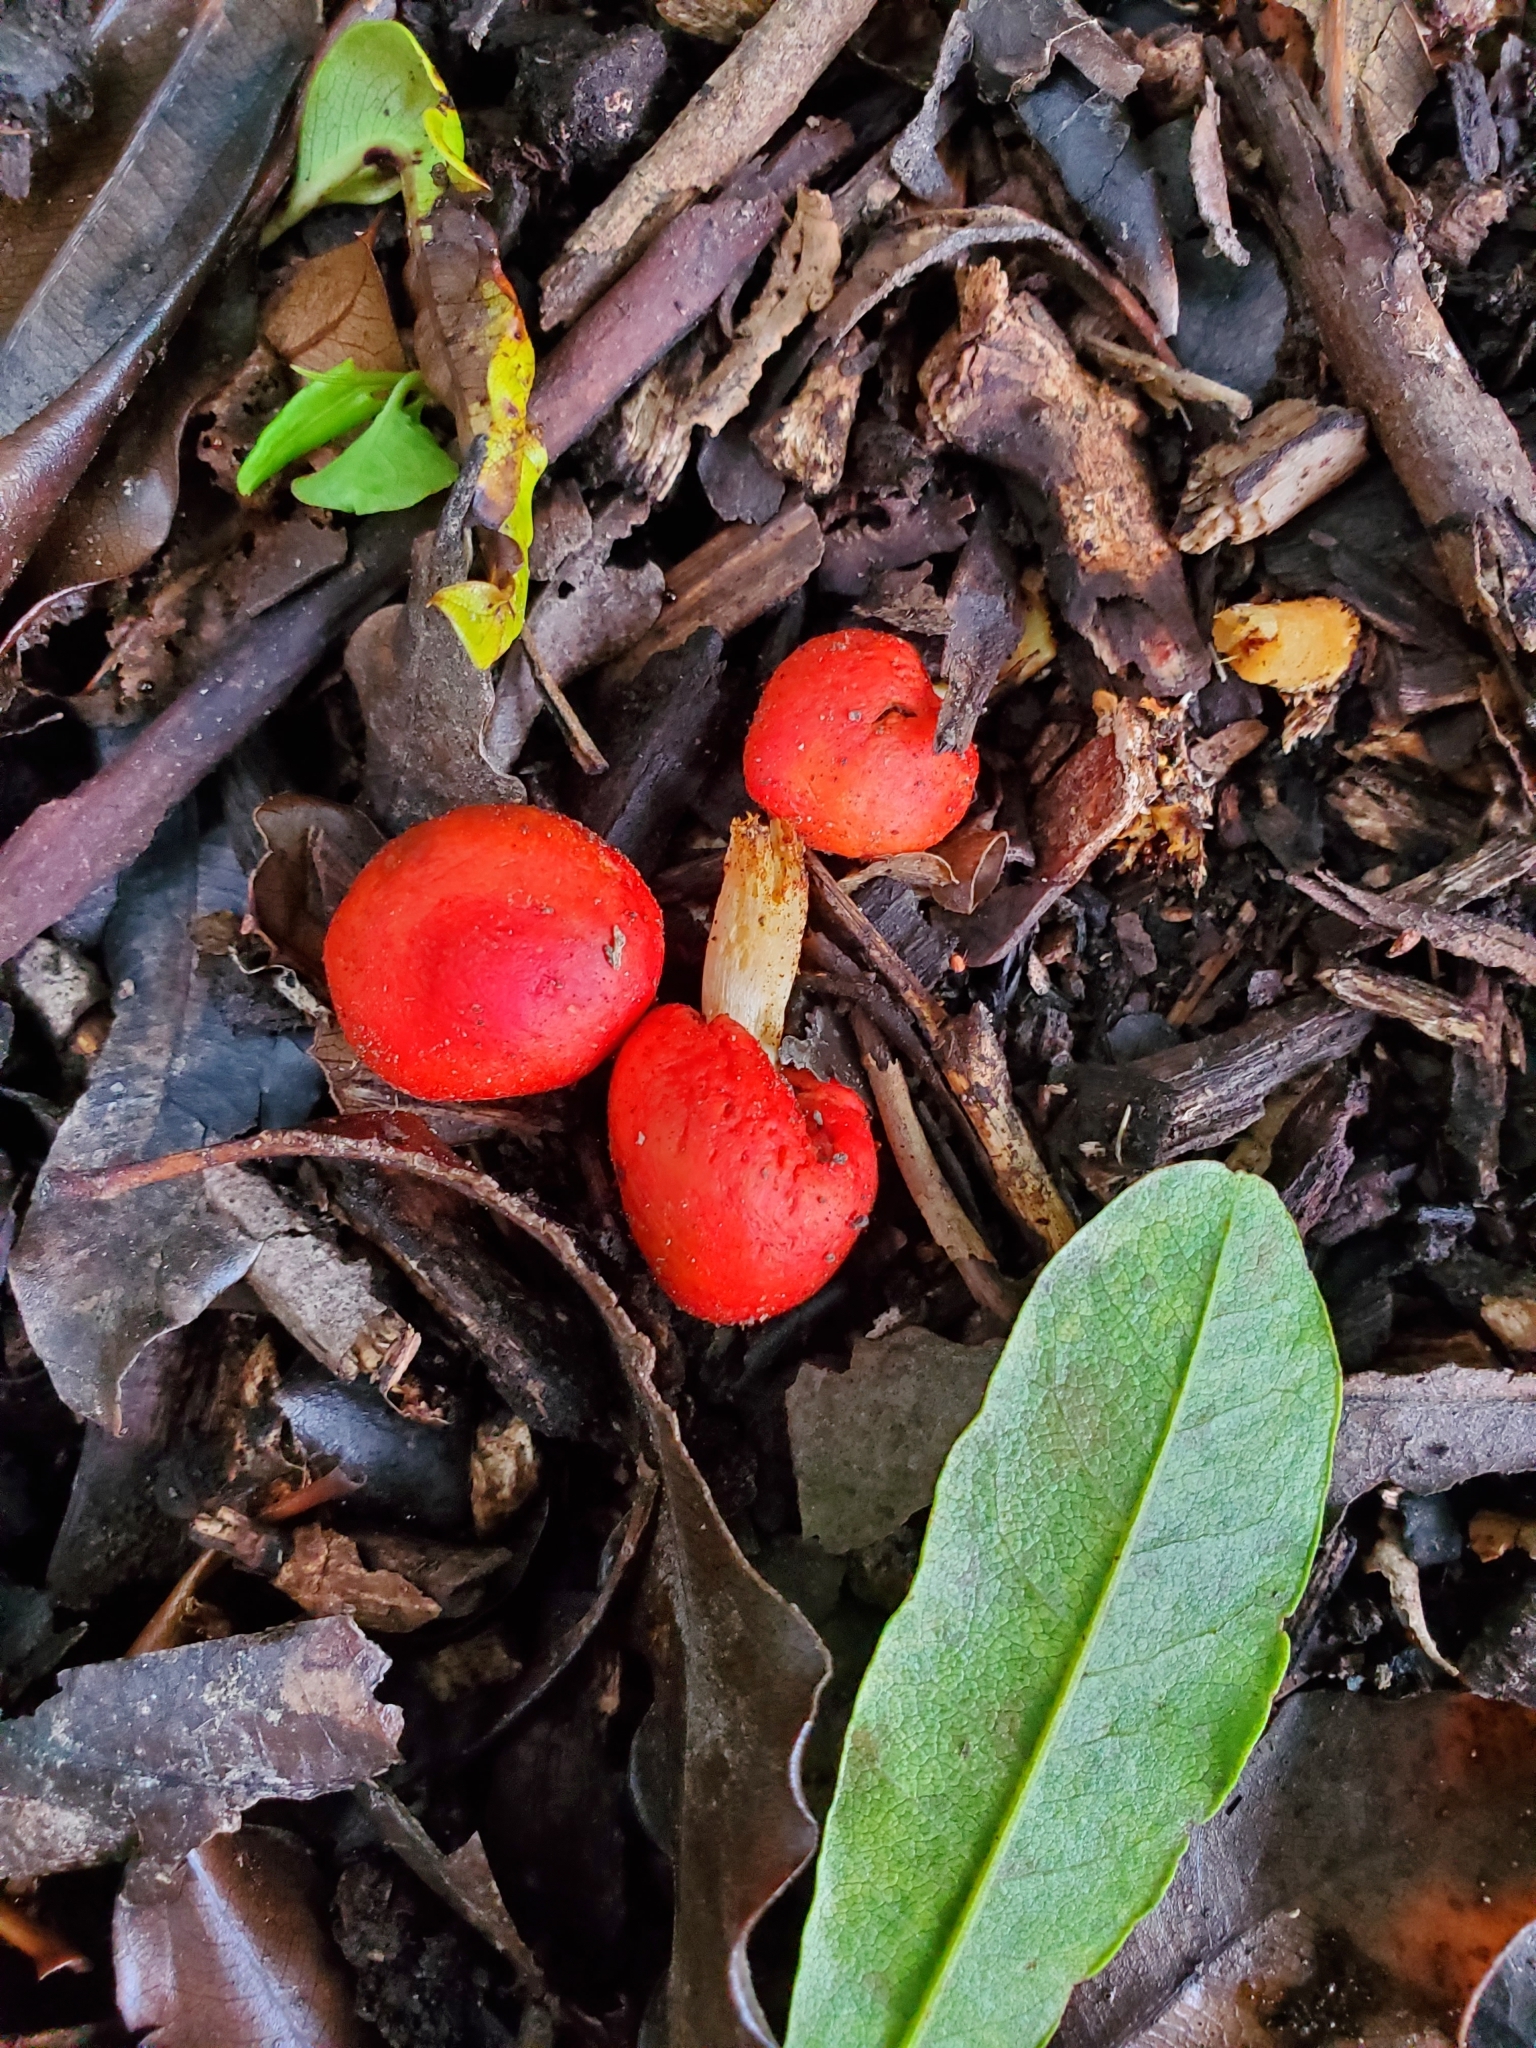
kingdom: Fungi
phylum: Basidiomycota
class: Agaricomycetes
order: Agaricales
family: Strophariaceae
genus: Leratiomyces
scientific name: Leratiomyces erythrocephalus
